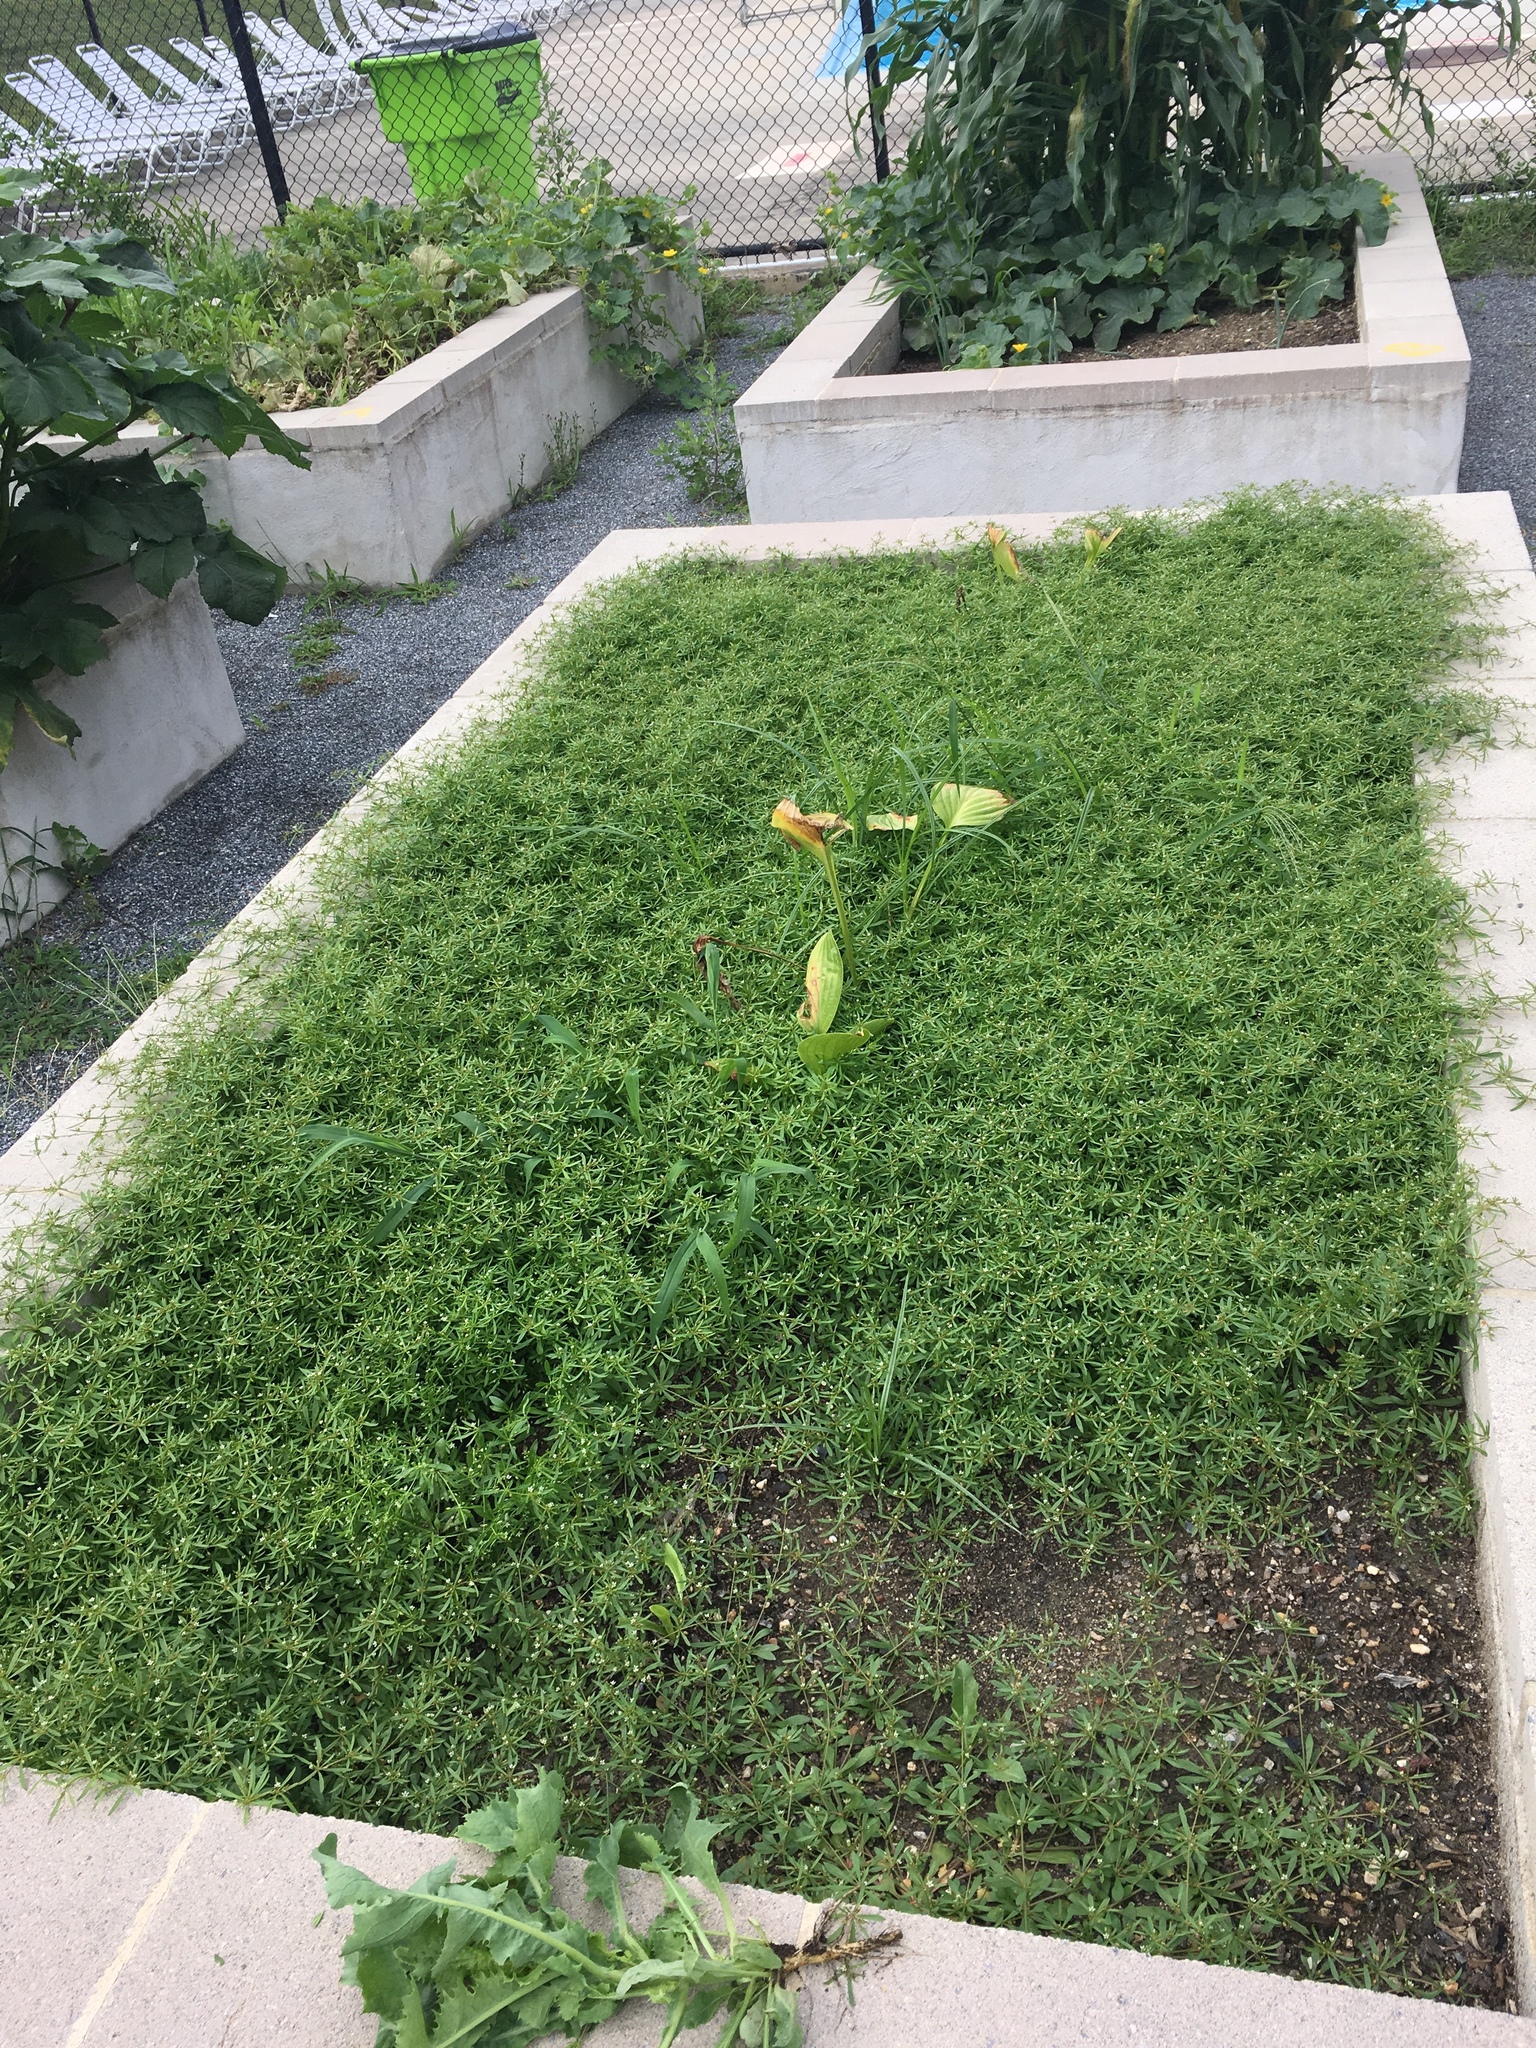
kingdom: Plantae
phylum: Tracheophyta
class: Magnoliopsida
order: Caryophyllales
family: Molluginaceae
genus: Mollugo
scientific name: Mollugo verticillata
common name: Green carpetweed
